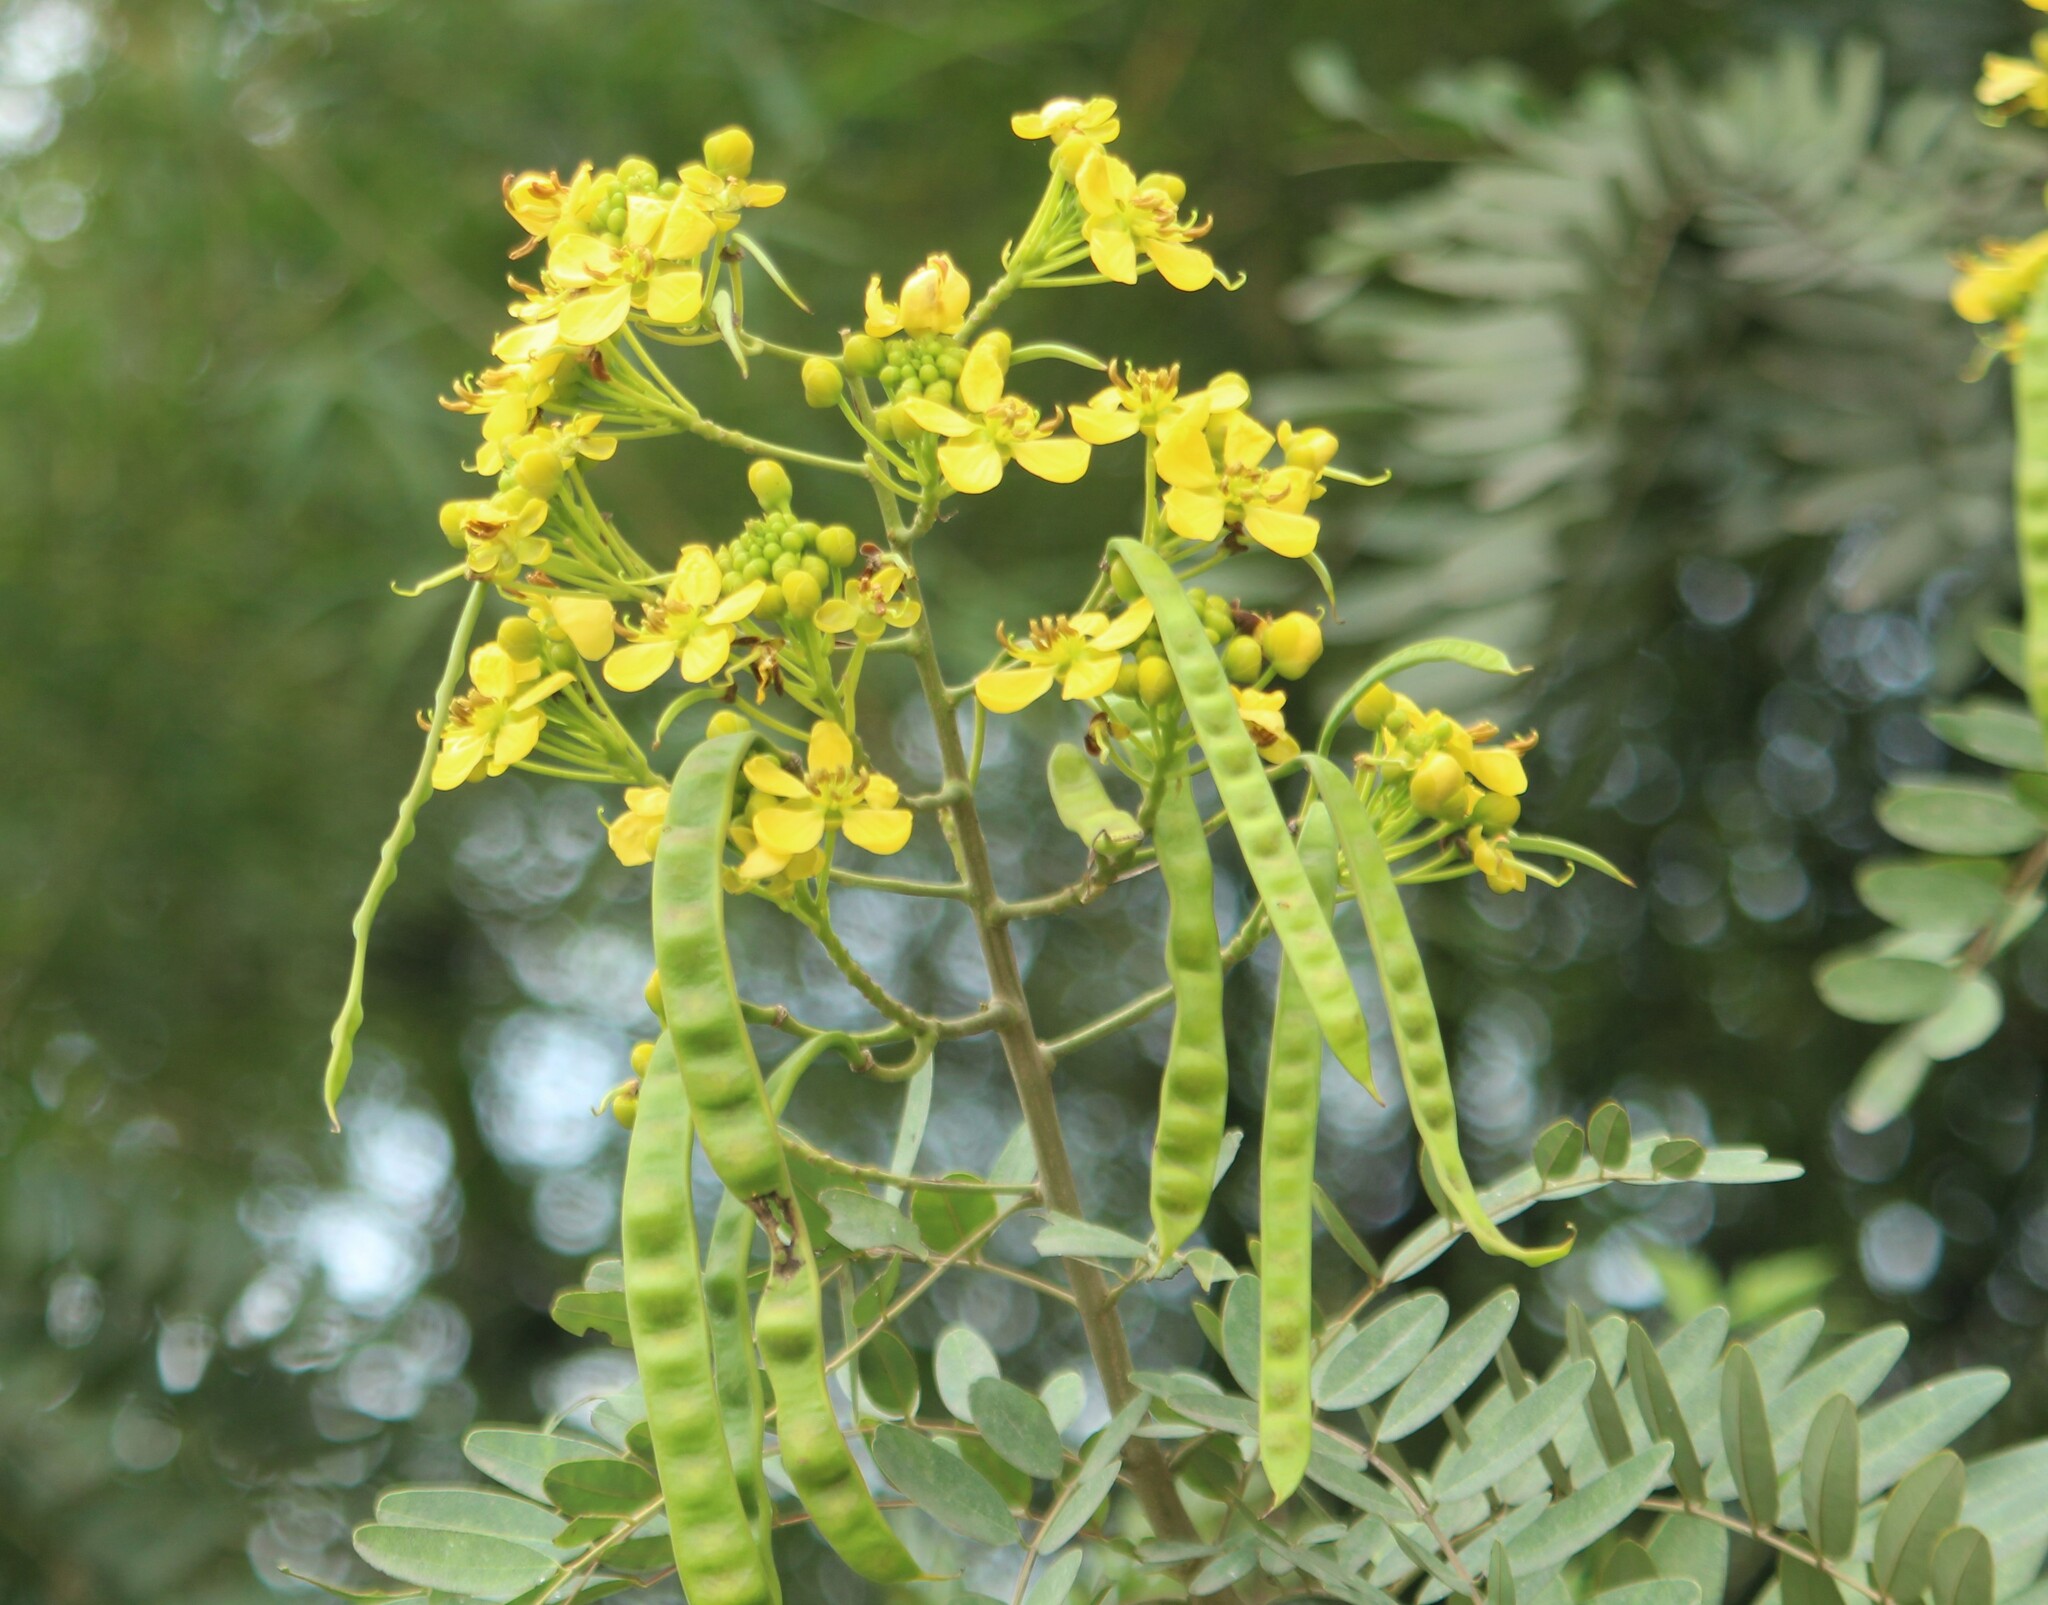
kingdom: Plantae
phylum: Tracheophyta
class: Magnoliopsida
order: Fabales
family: Fabaceae
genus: Senna
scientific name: Senna siamea
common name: Siamese cassia
